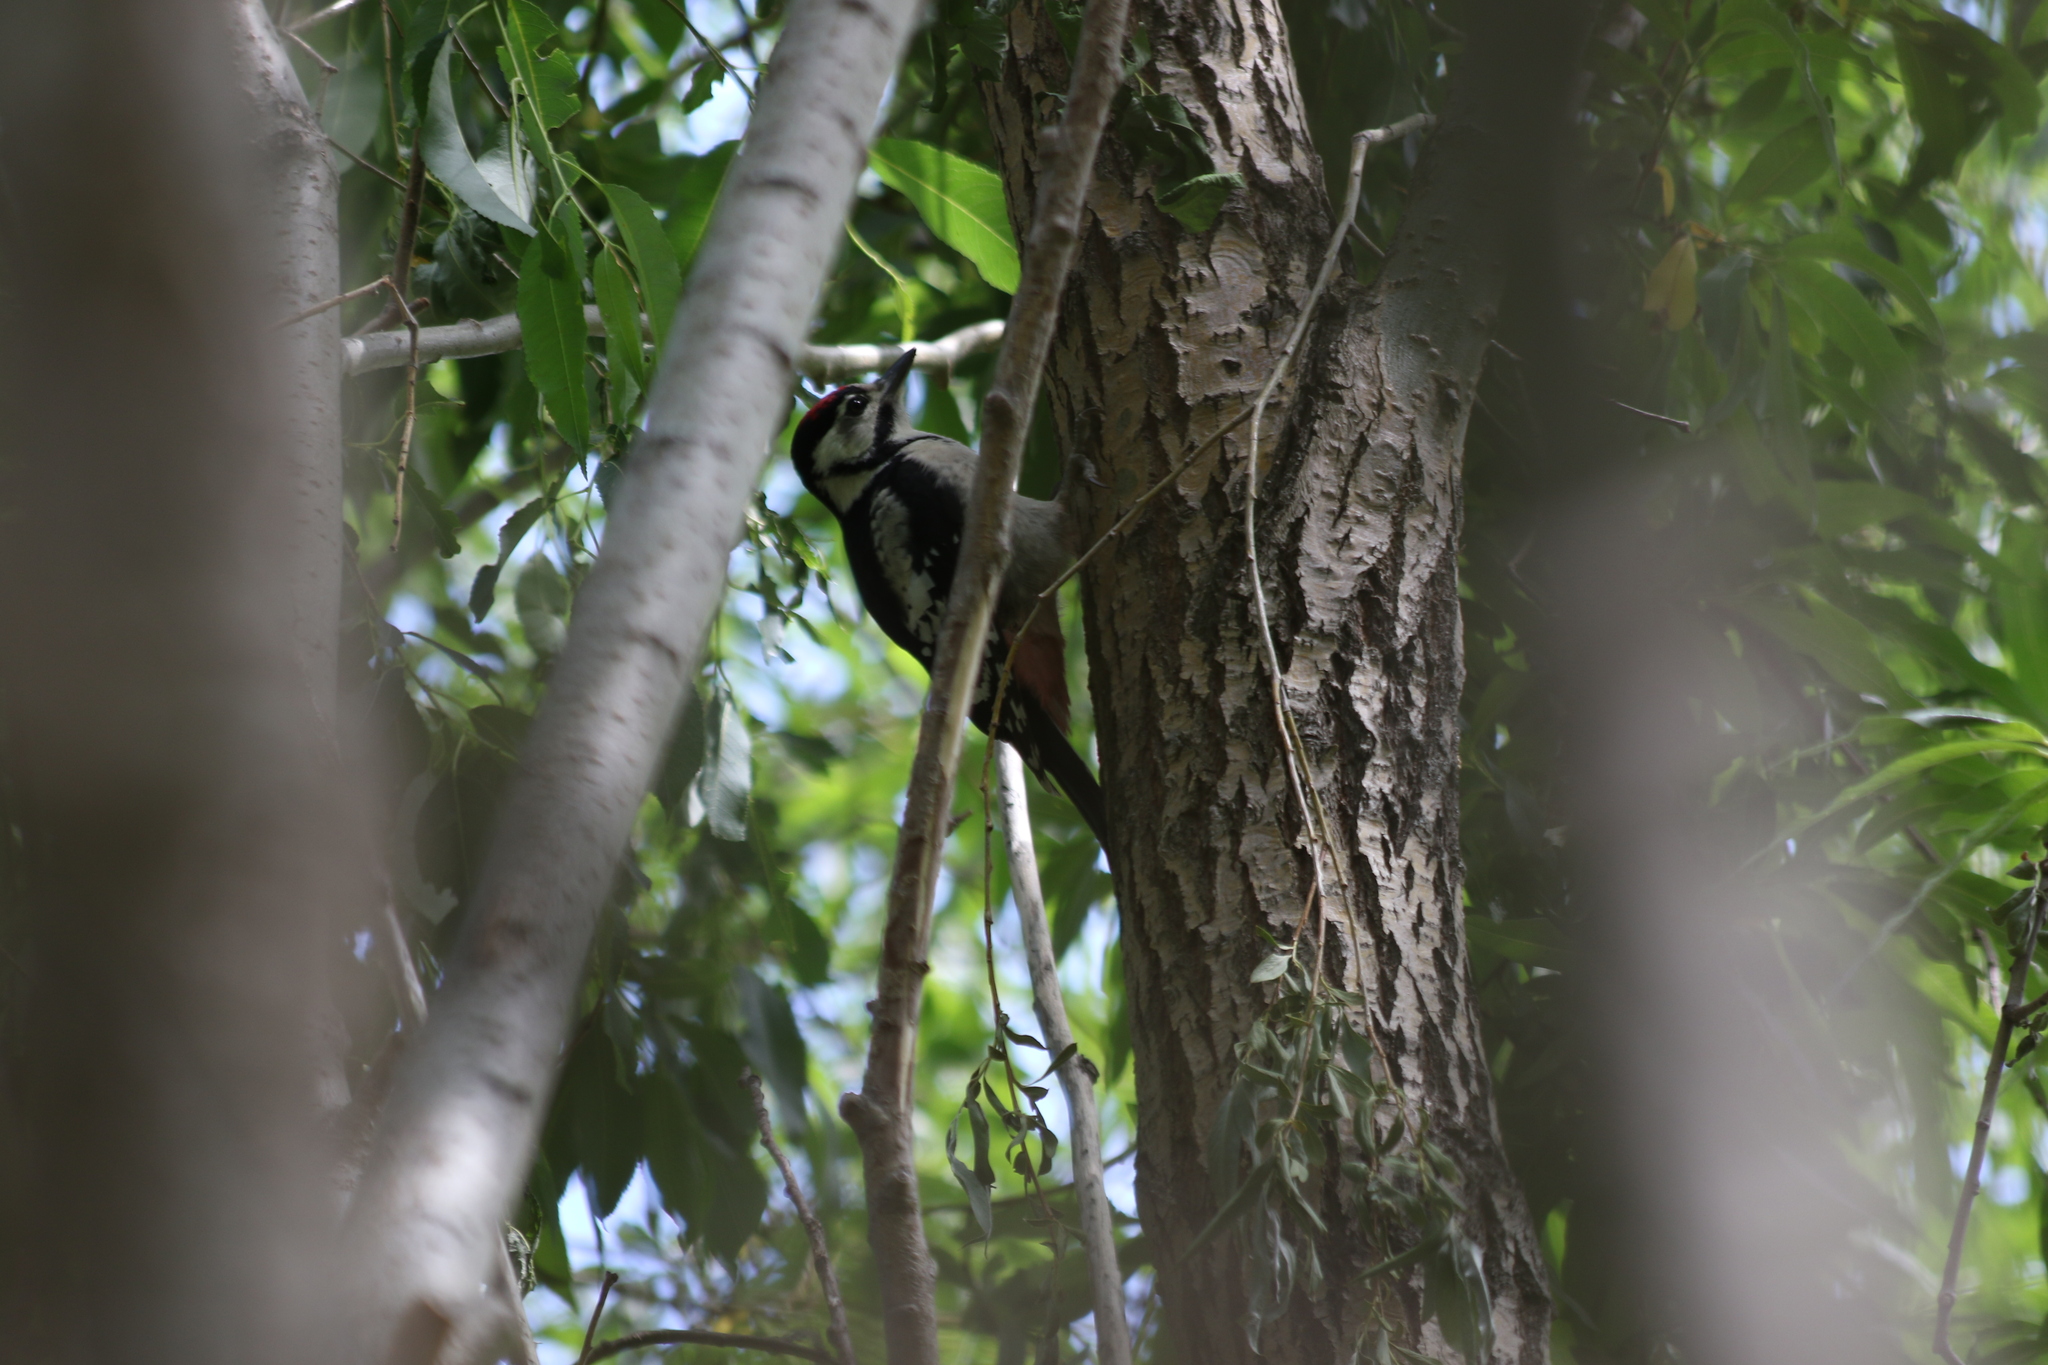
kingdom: Animalia
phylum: Chordata
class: Aves
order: Piciformes
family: Picidae
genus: Dendrocopos
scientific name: Dendrocopos major
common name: Great spotted woodpecker
